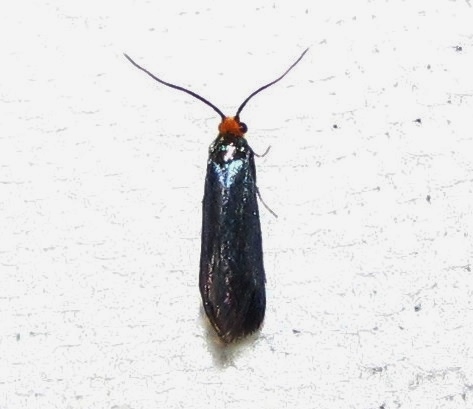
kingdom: Animalia
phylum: Arthropoda
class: Insecta
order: Lepidoptera
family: Incurvariidae
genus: Paraclemensia
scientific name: Paraclemensia acerifoliella
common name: Maple leafcutter
